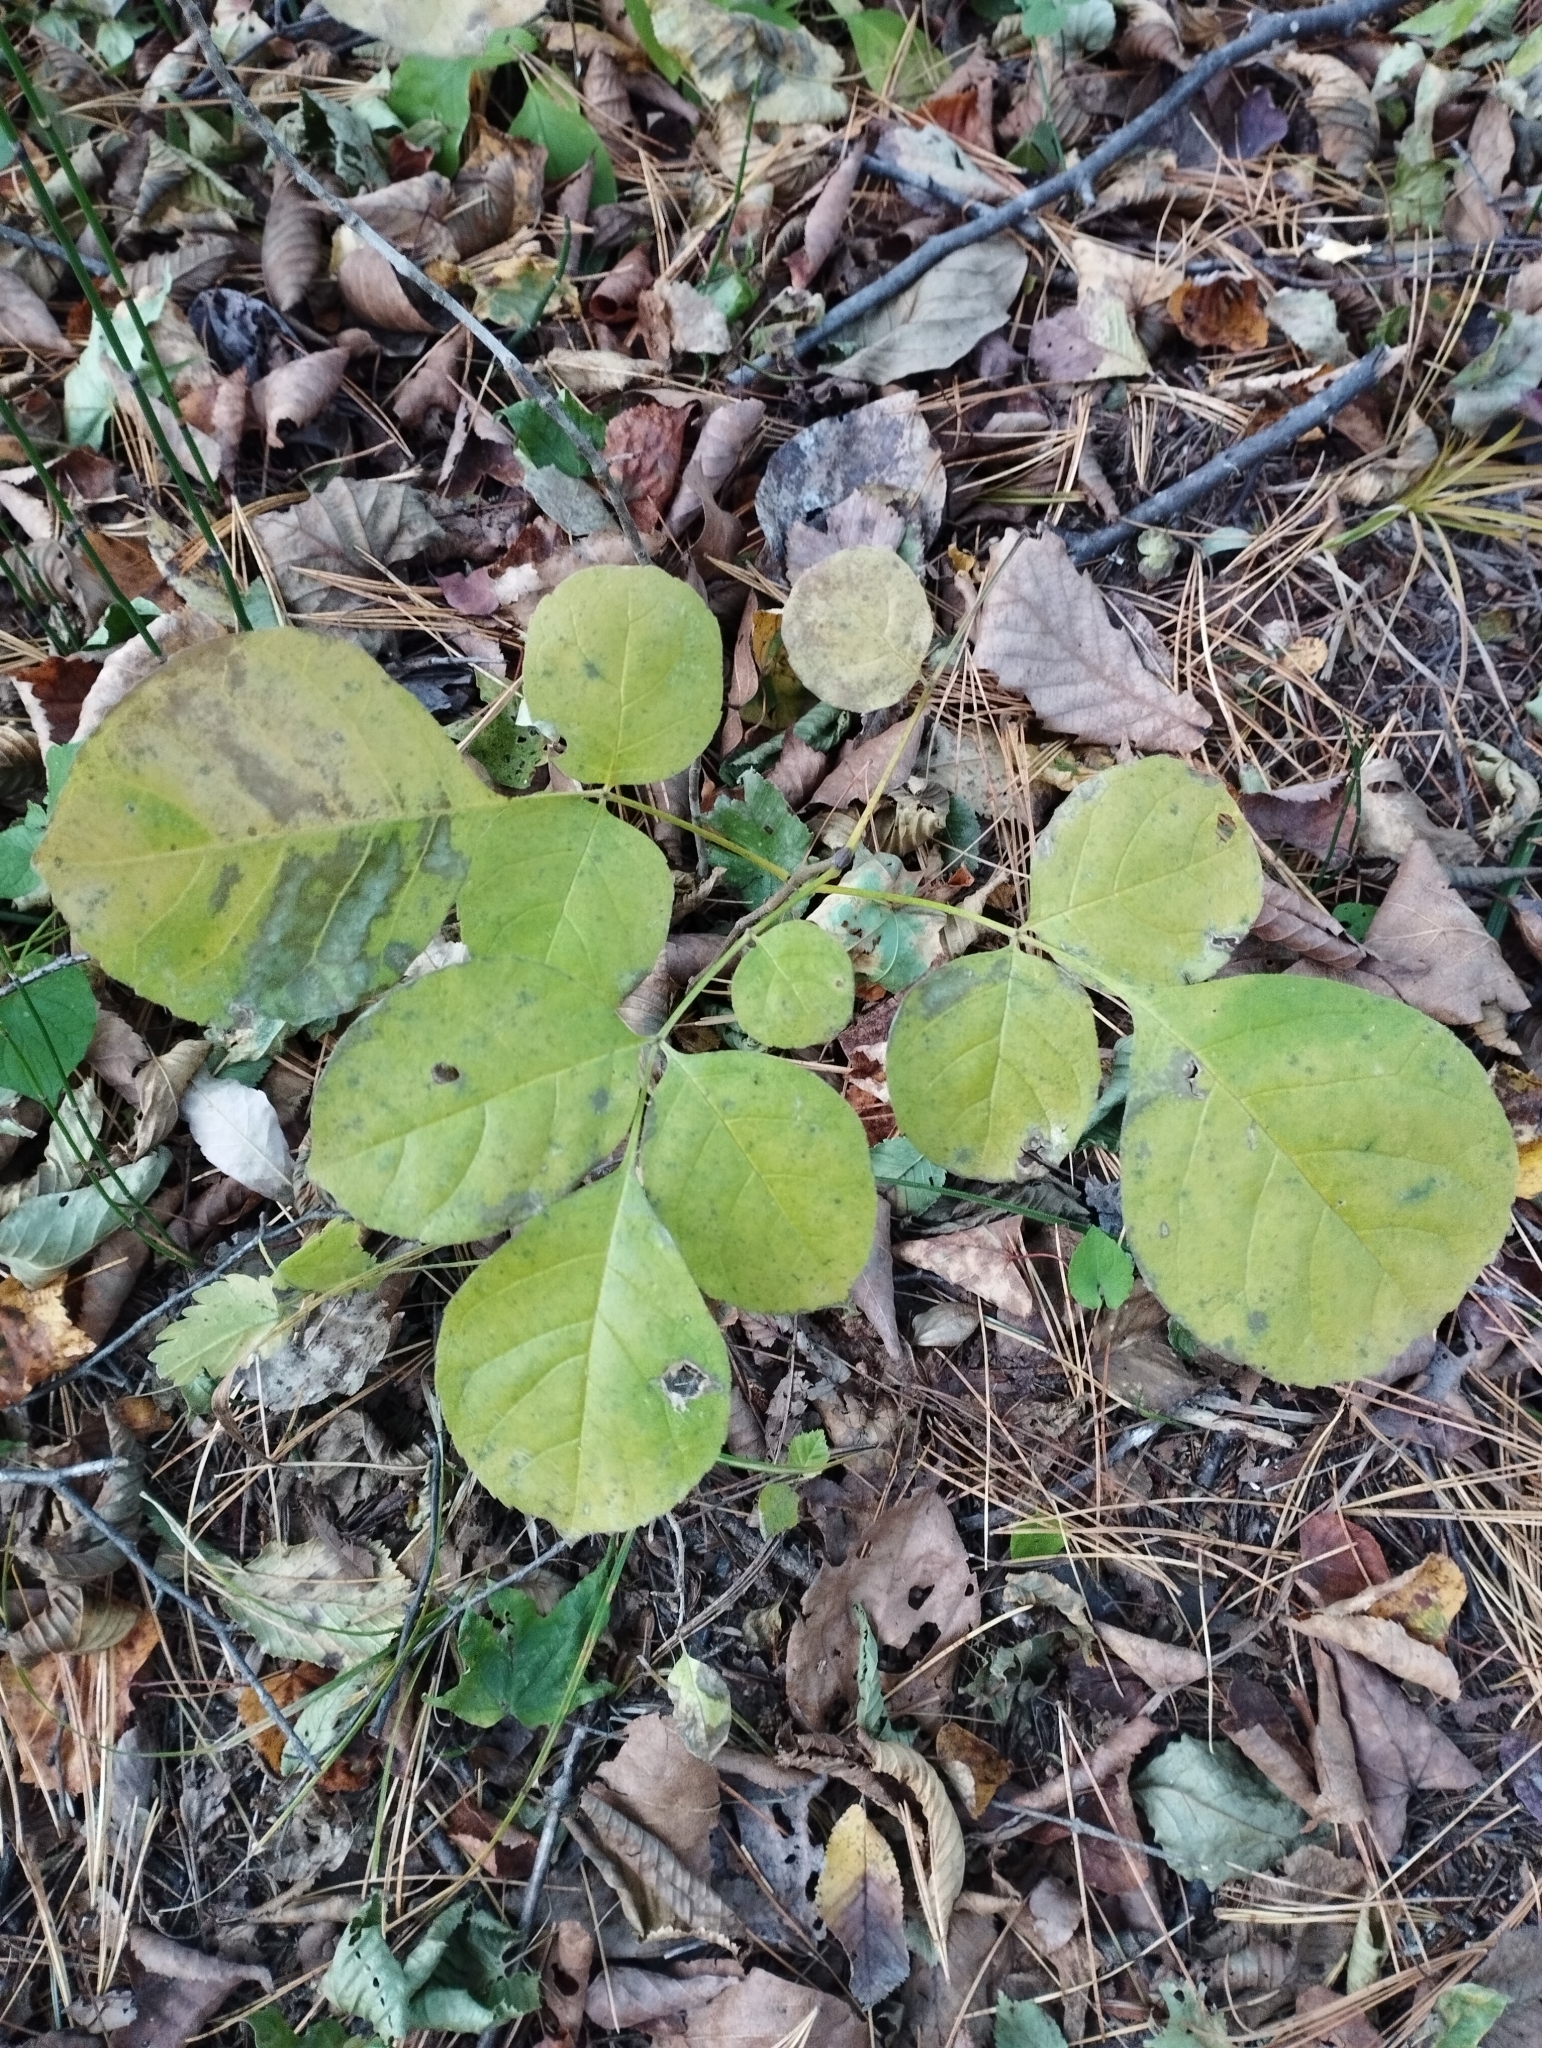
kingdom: Plantae
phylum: Tracheophyta
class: Magnoliopsida
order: Lamiales
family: Oleaceae
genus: Fraxinus
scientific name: Fraxinus chinensis
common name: Chinese ash
